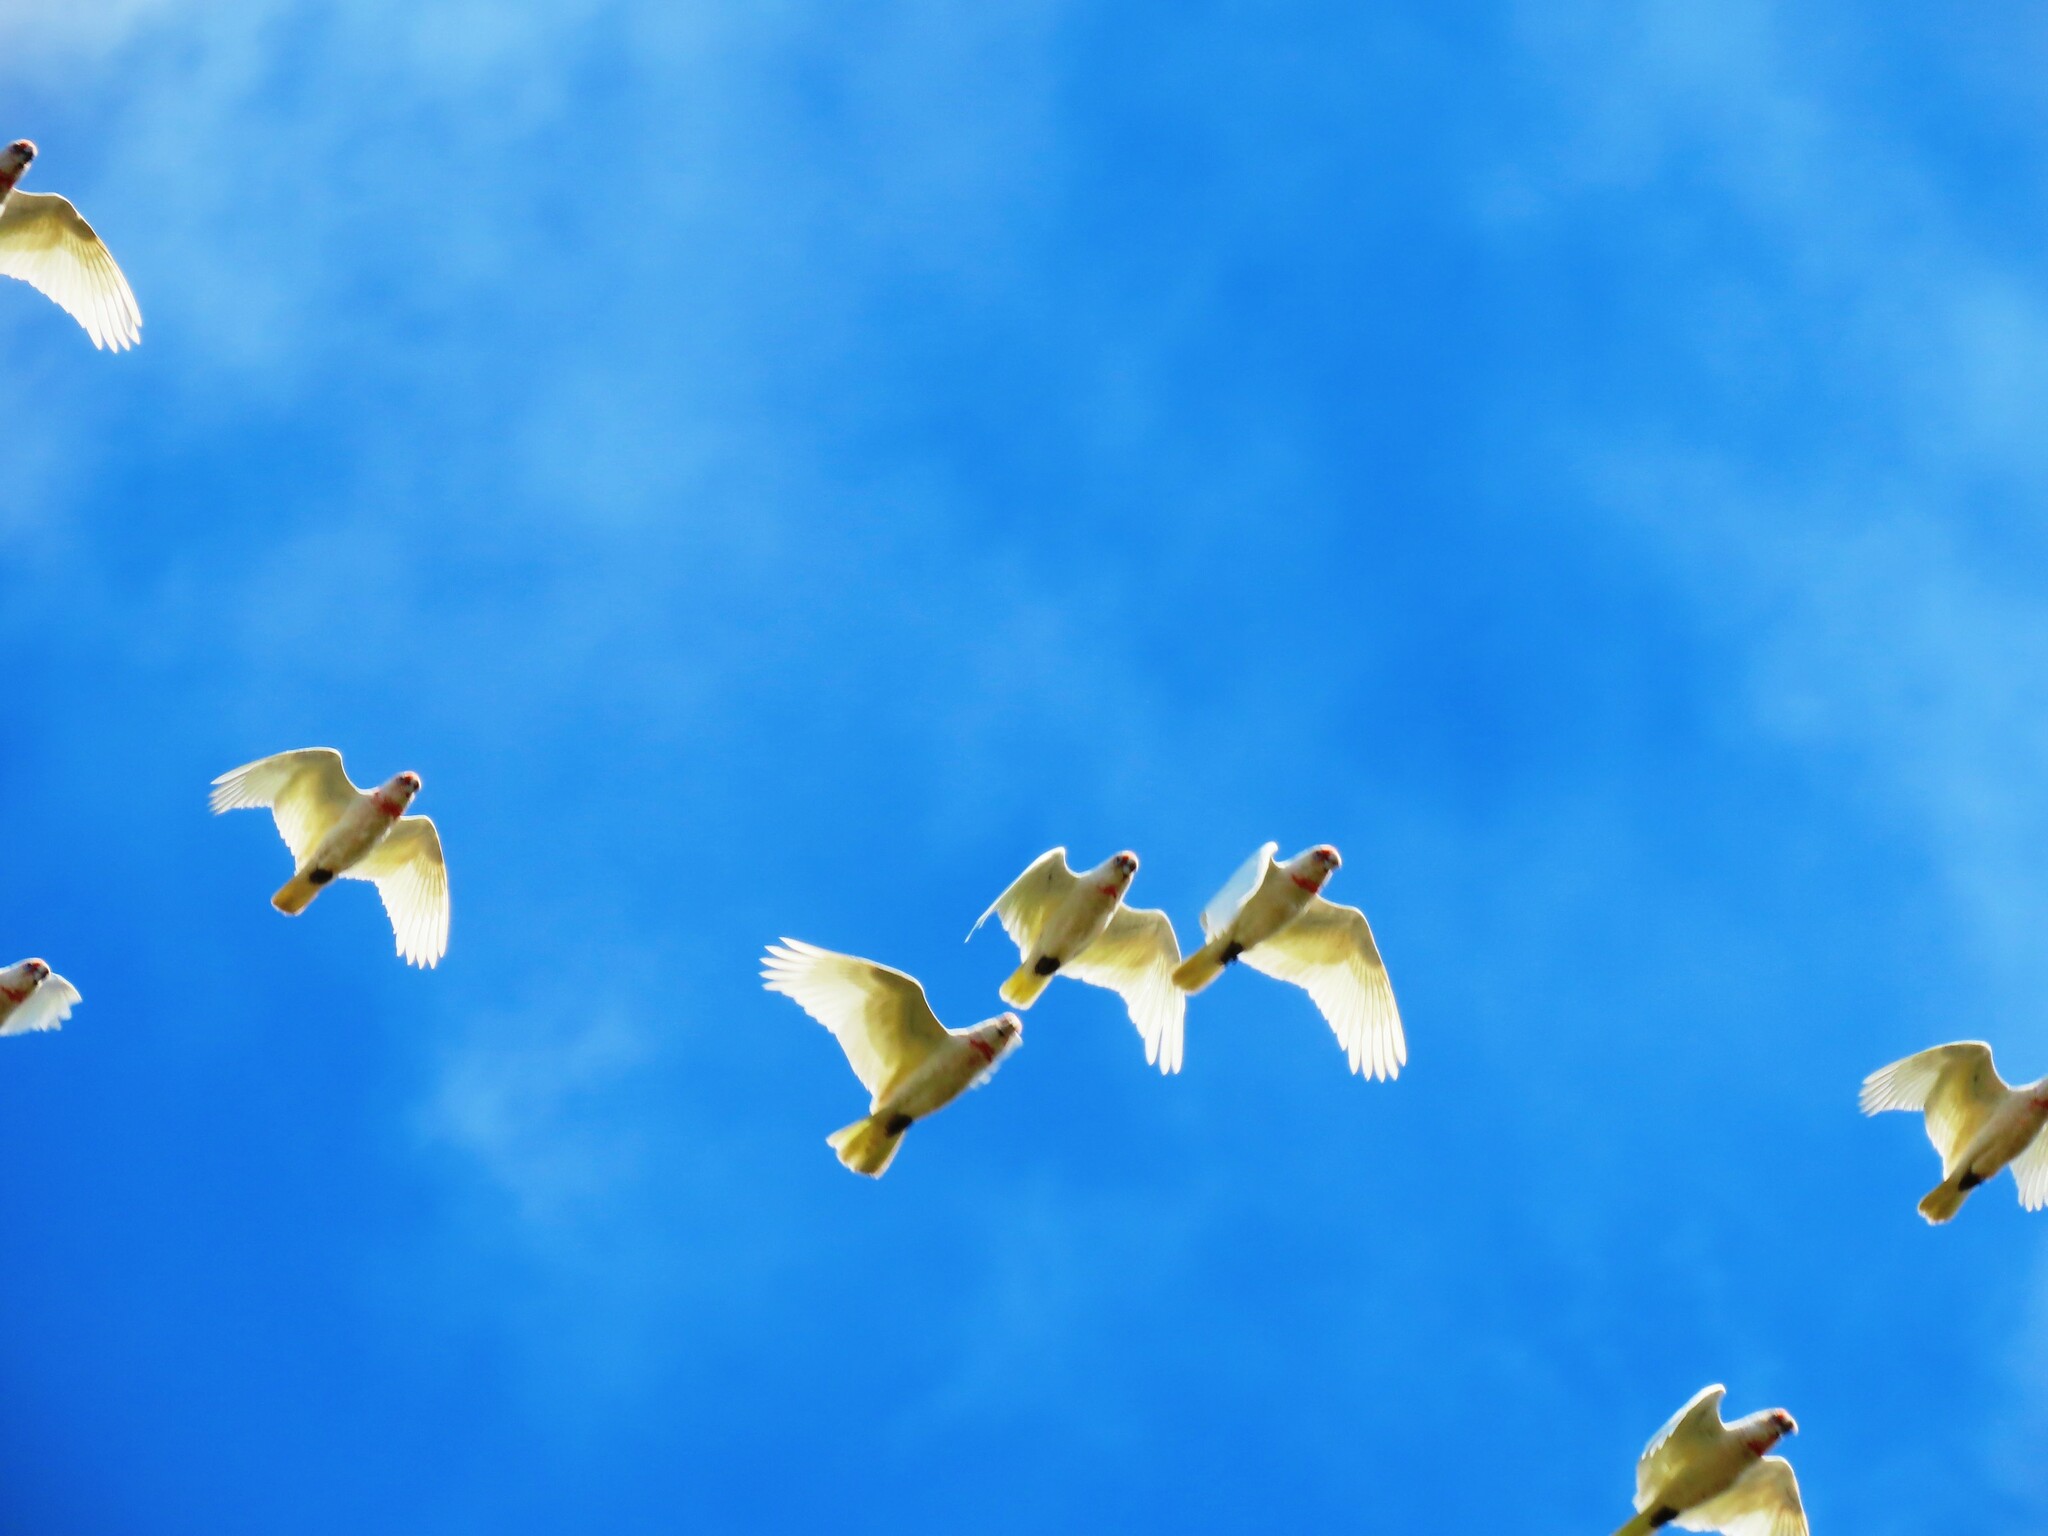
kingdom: Animalia
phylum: Chordata
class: Aves
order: Psittaciformes
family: Psittacidae
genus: Cacatua
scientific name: Cacatua tenuirostris
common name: Long-billed corella
